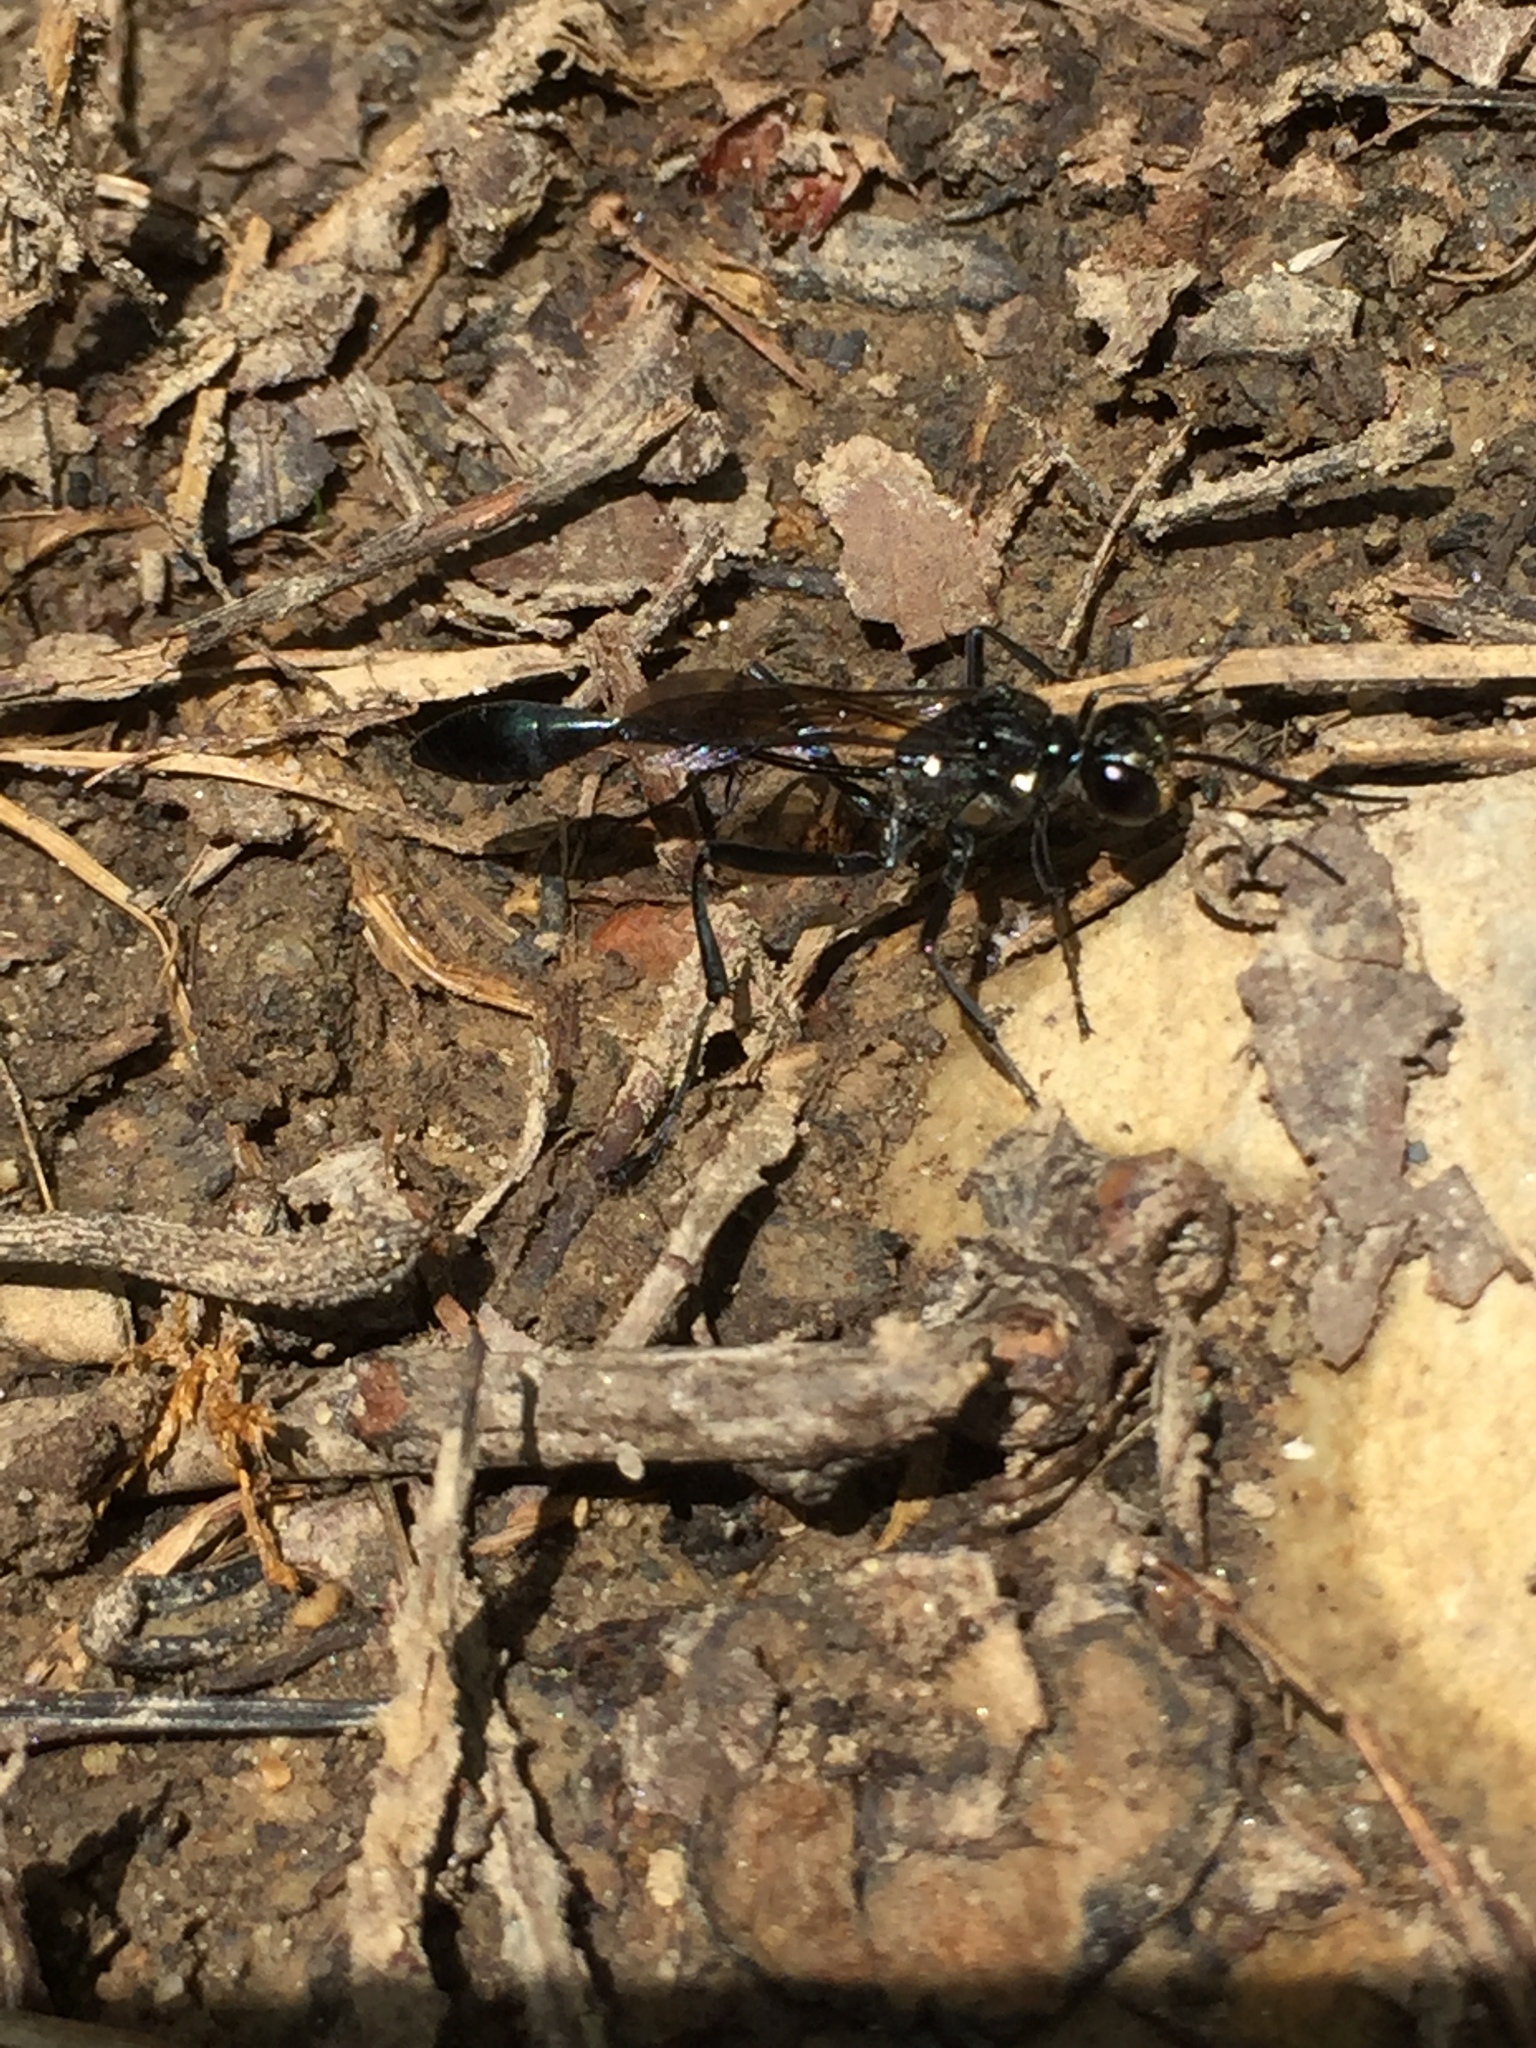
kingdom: Animalia
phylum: Arthropoda
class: Insecta
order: Hymenoptera
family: Sphecidae
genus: Eremnophila
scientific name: Eremnophila aureonotata
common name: Gold-marked thread-waisted wasp
